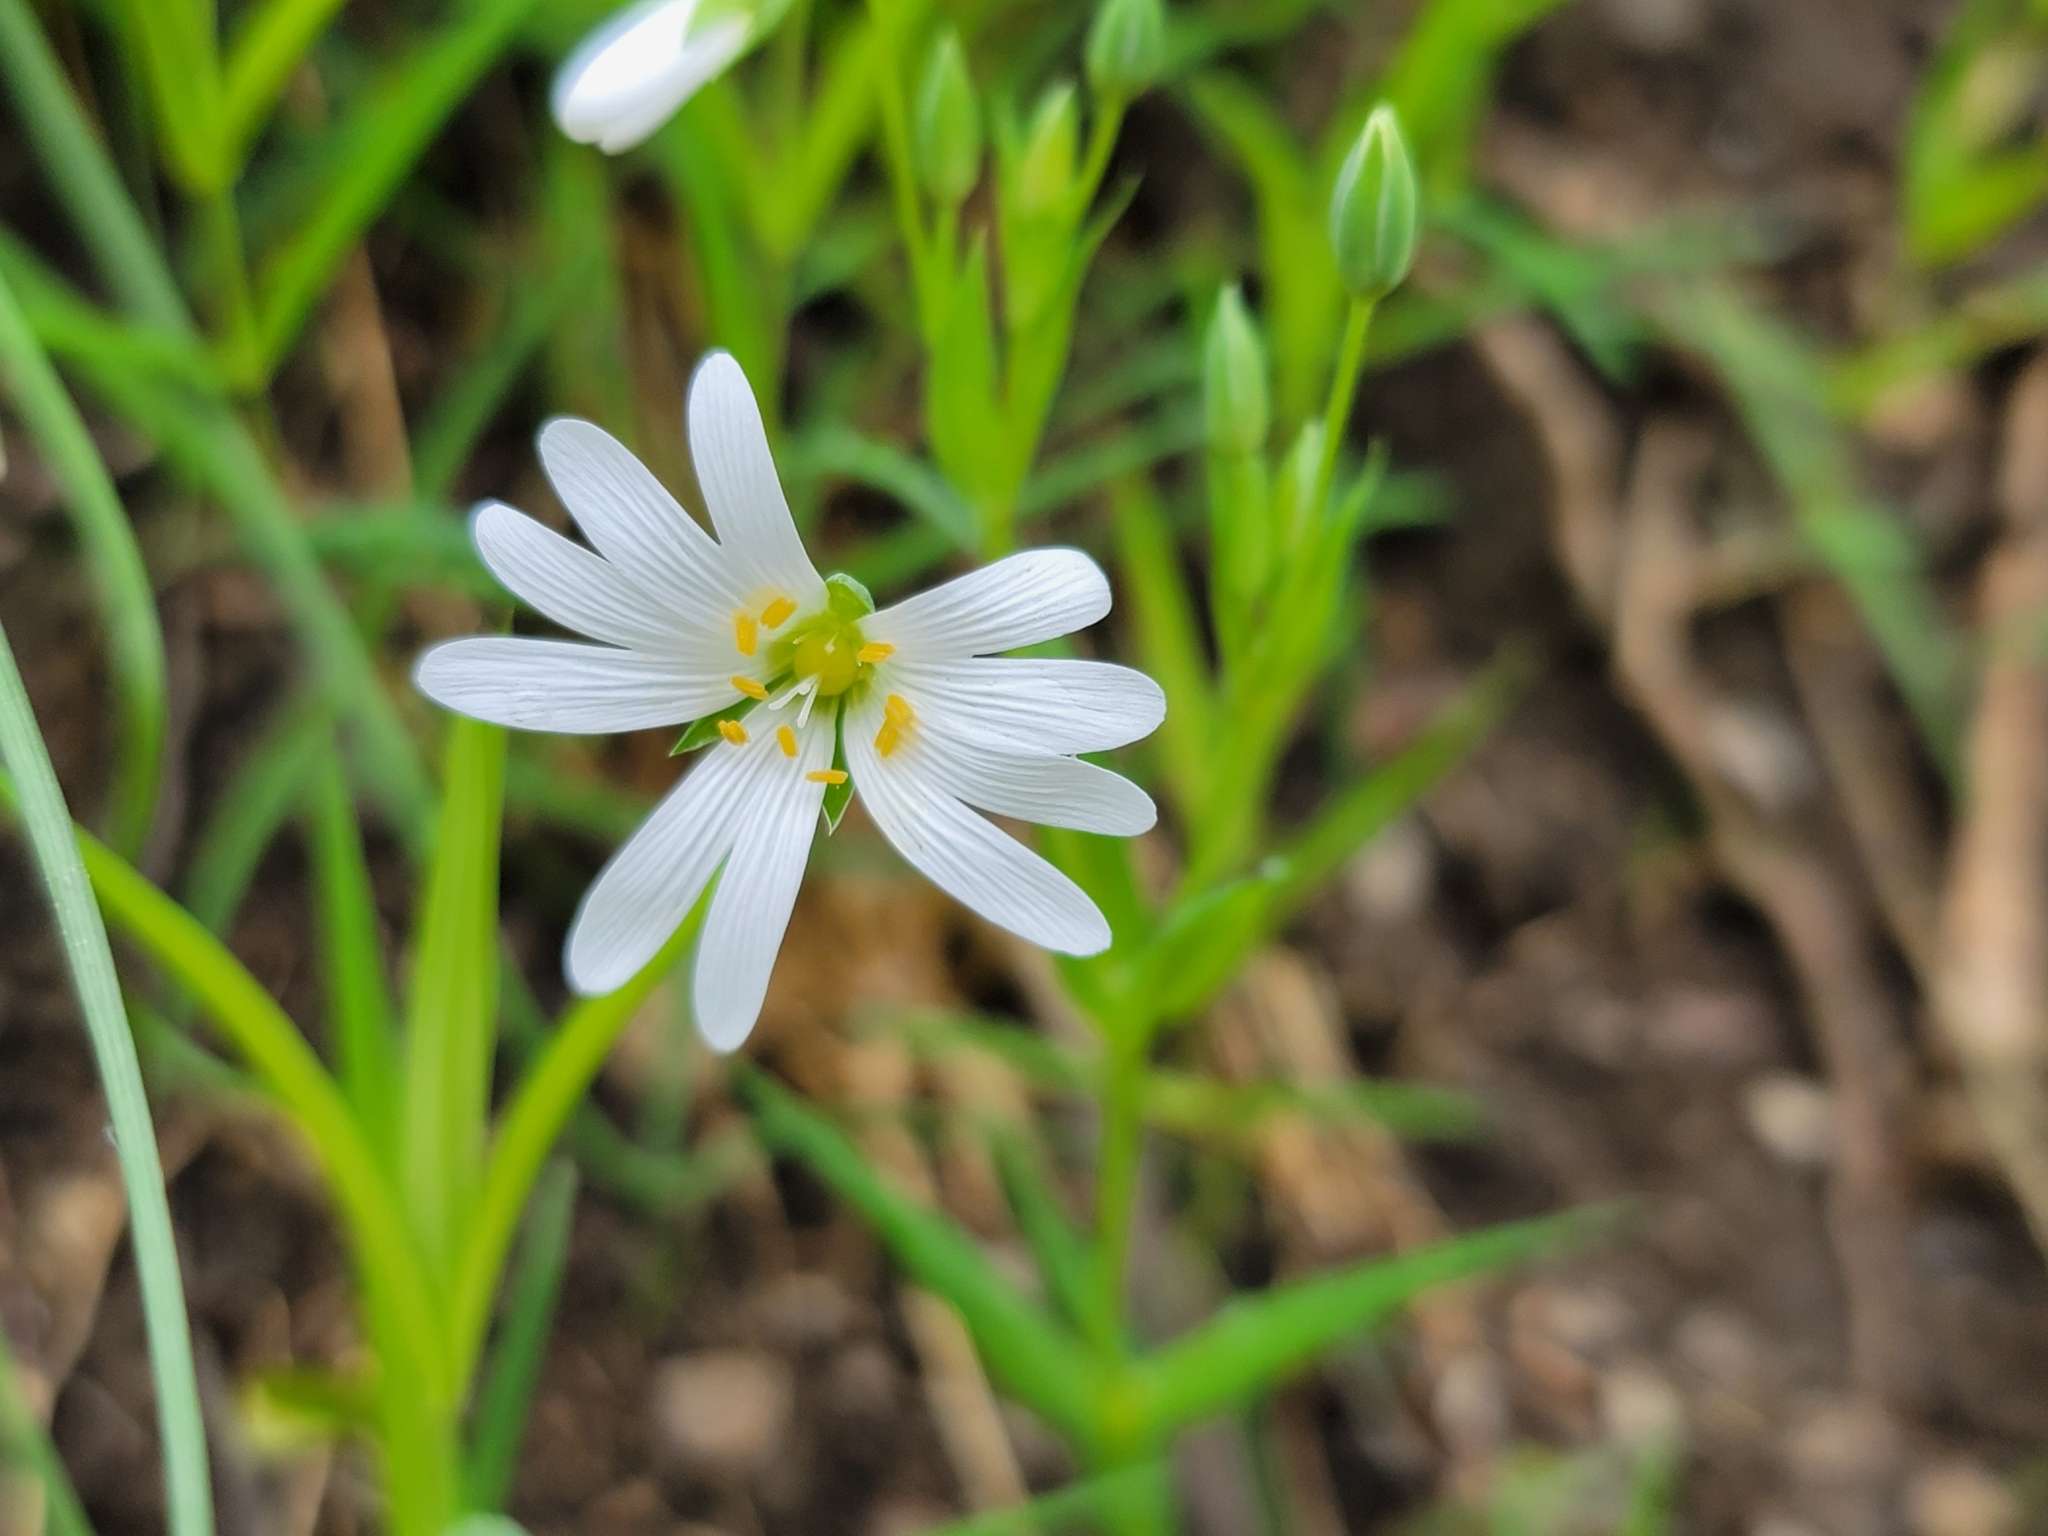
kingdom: Plantae
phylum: Tracheophyta
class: Magnoliopsida
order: Caryophyllales
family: Caryophyllaceae
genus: Rabelera
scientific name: Rabelera holostea
